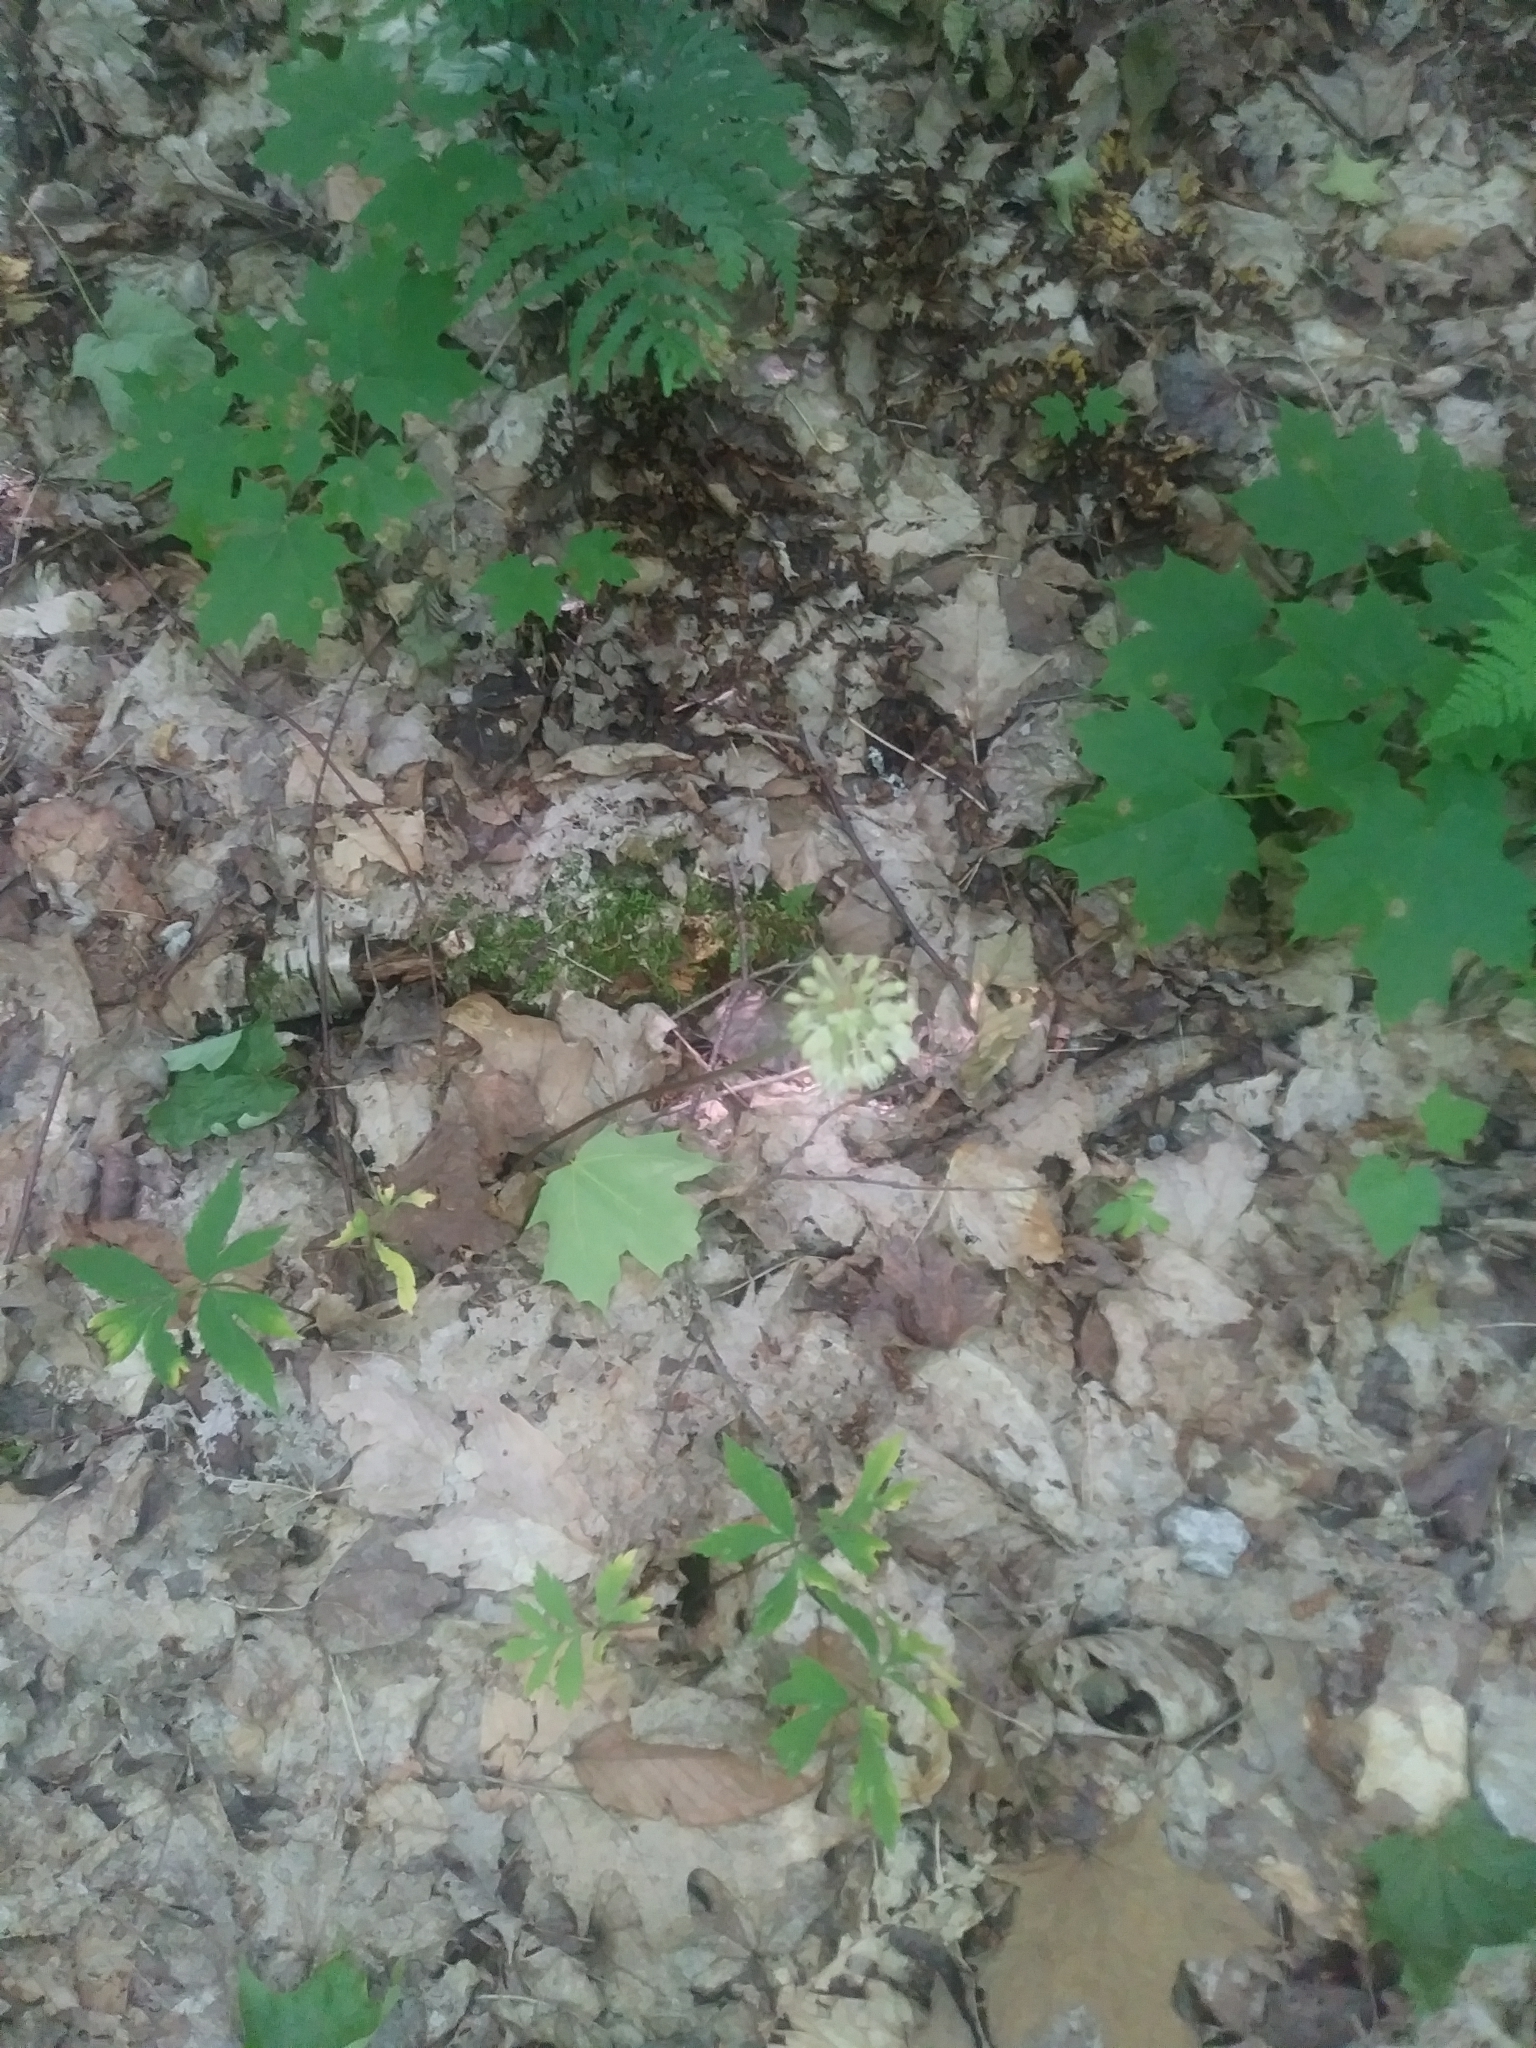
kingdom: Plantae
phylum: Tracheophyta
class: Liliopsida
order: Asparagales
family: Amaryllidaceae
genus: Allium
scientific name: Allium tricoccum
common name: Ramp
